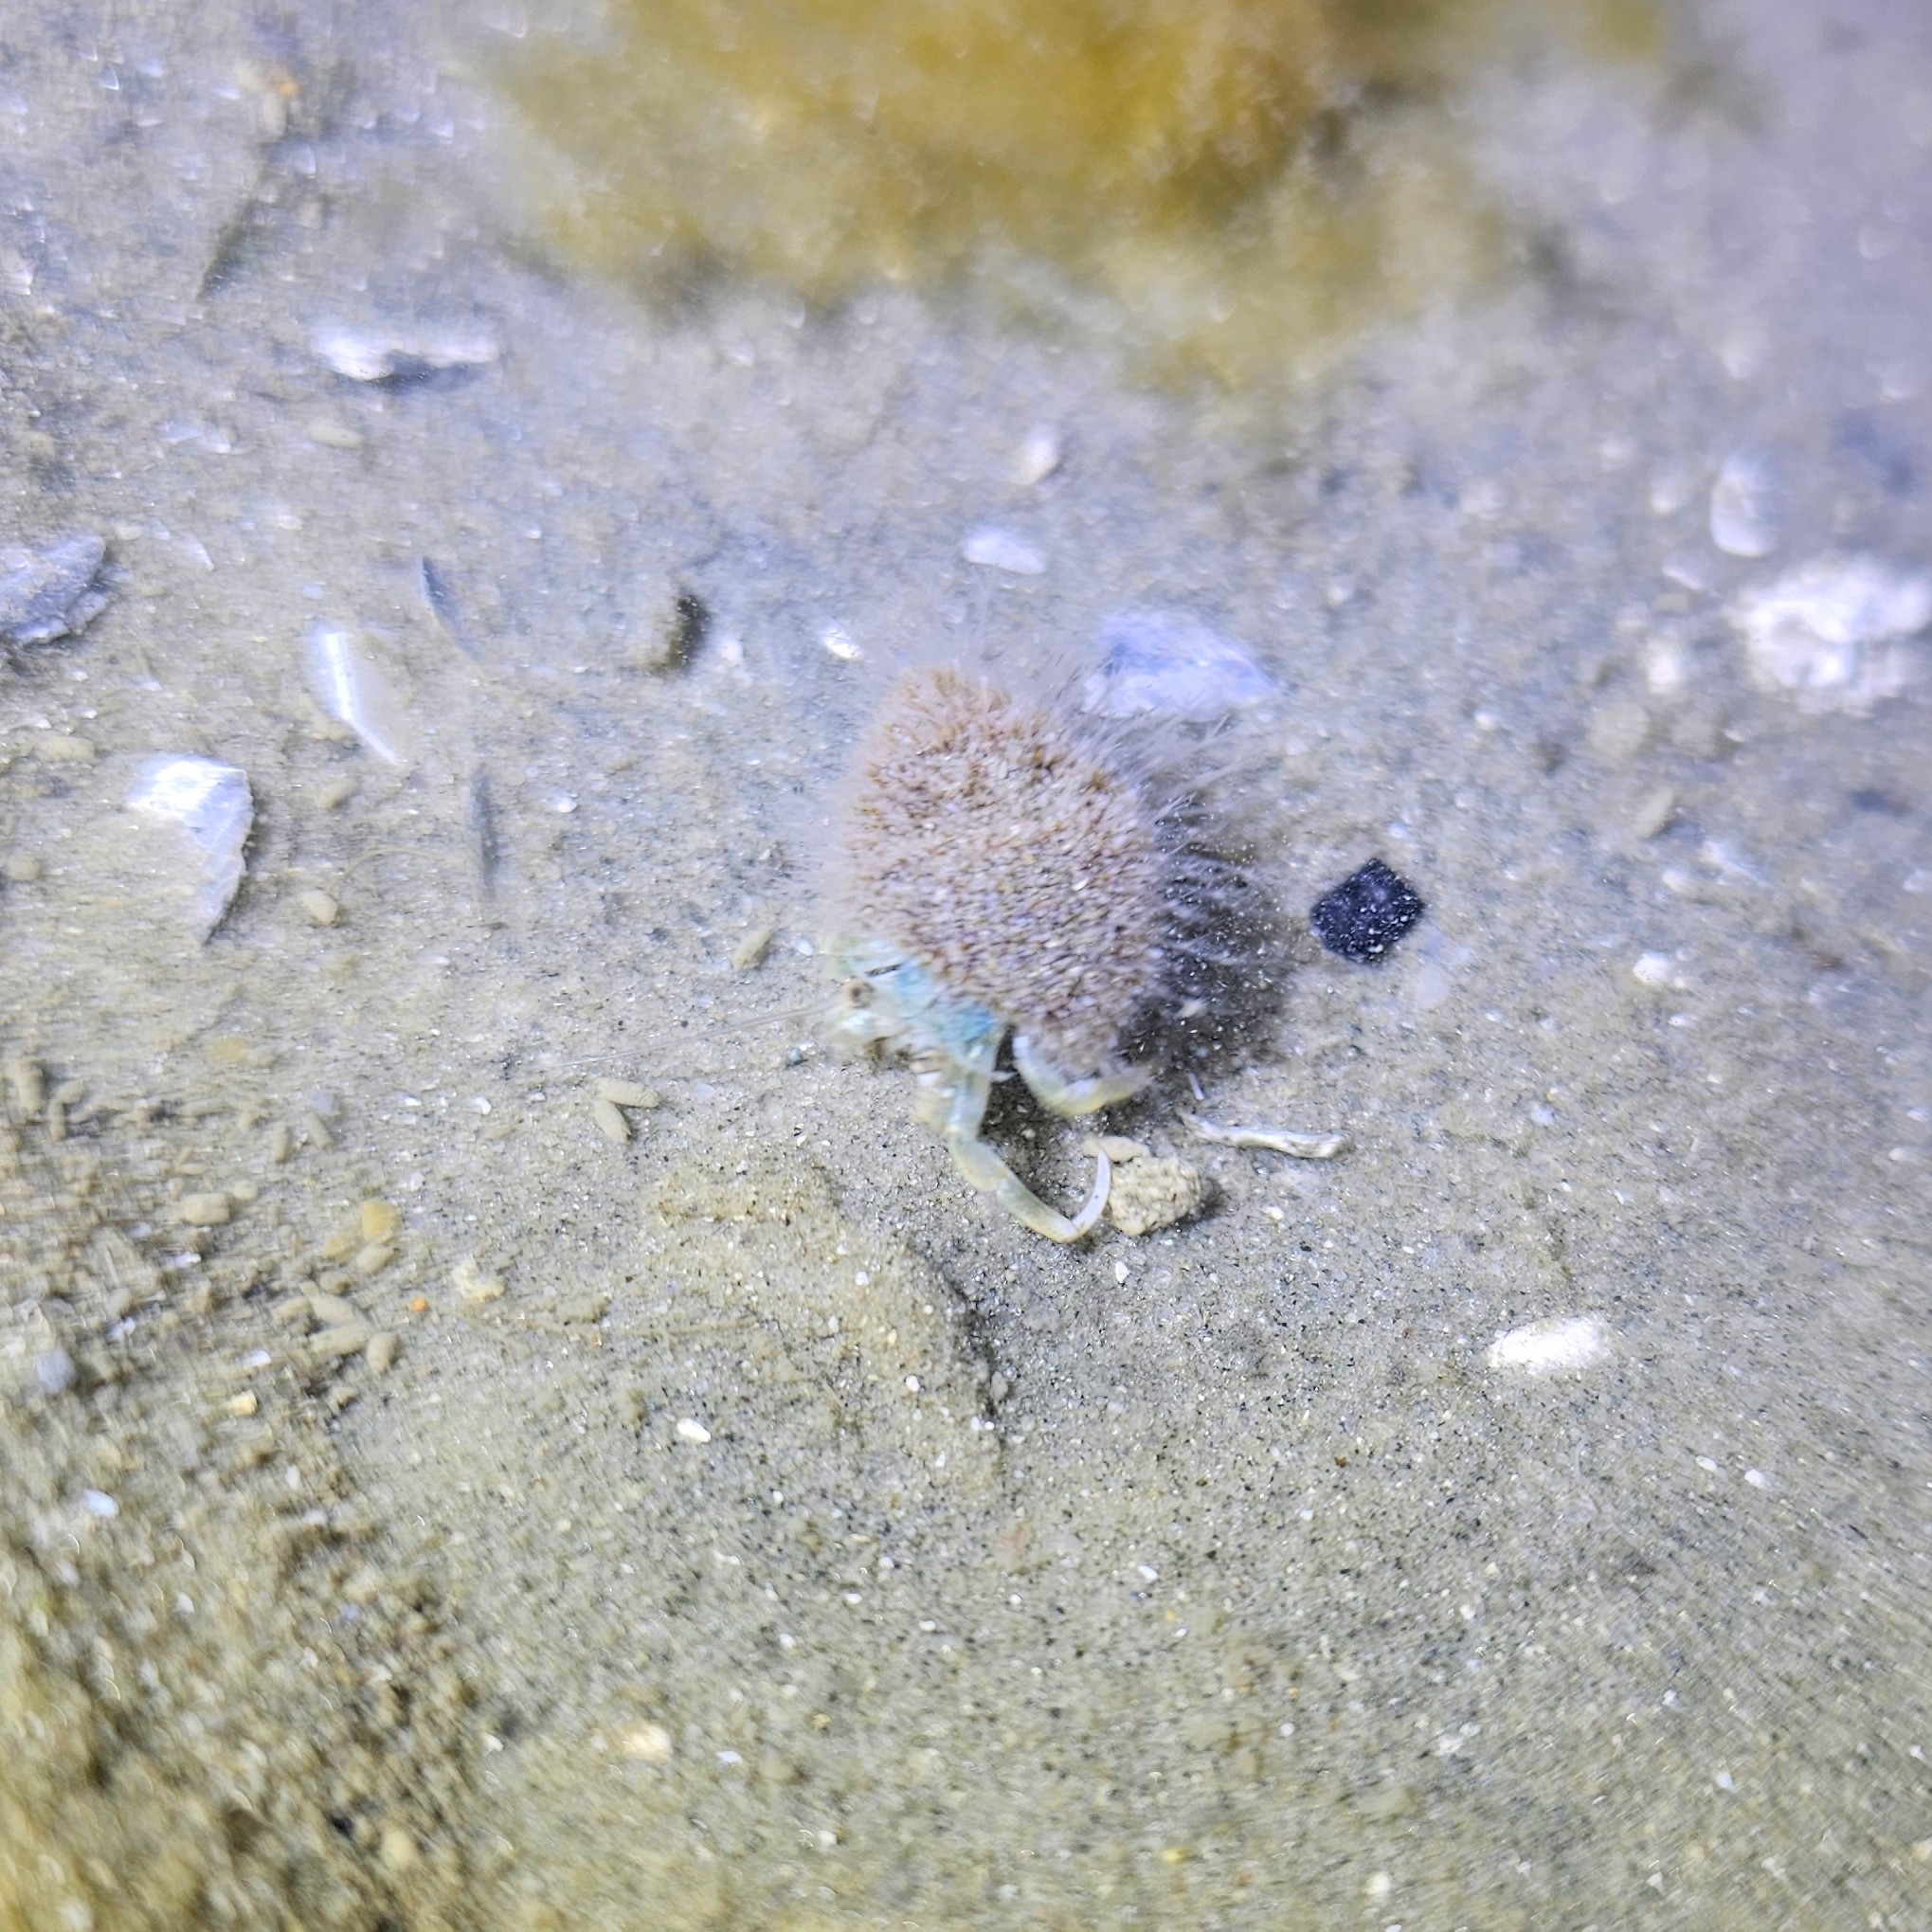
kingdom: Animalia
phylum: Arthropoda
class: Malacostraca
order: Decapoda
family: Paguridae
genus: Pagurus
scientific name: Pagurus longicarpus
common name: Long-armed hermit crab
